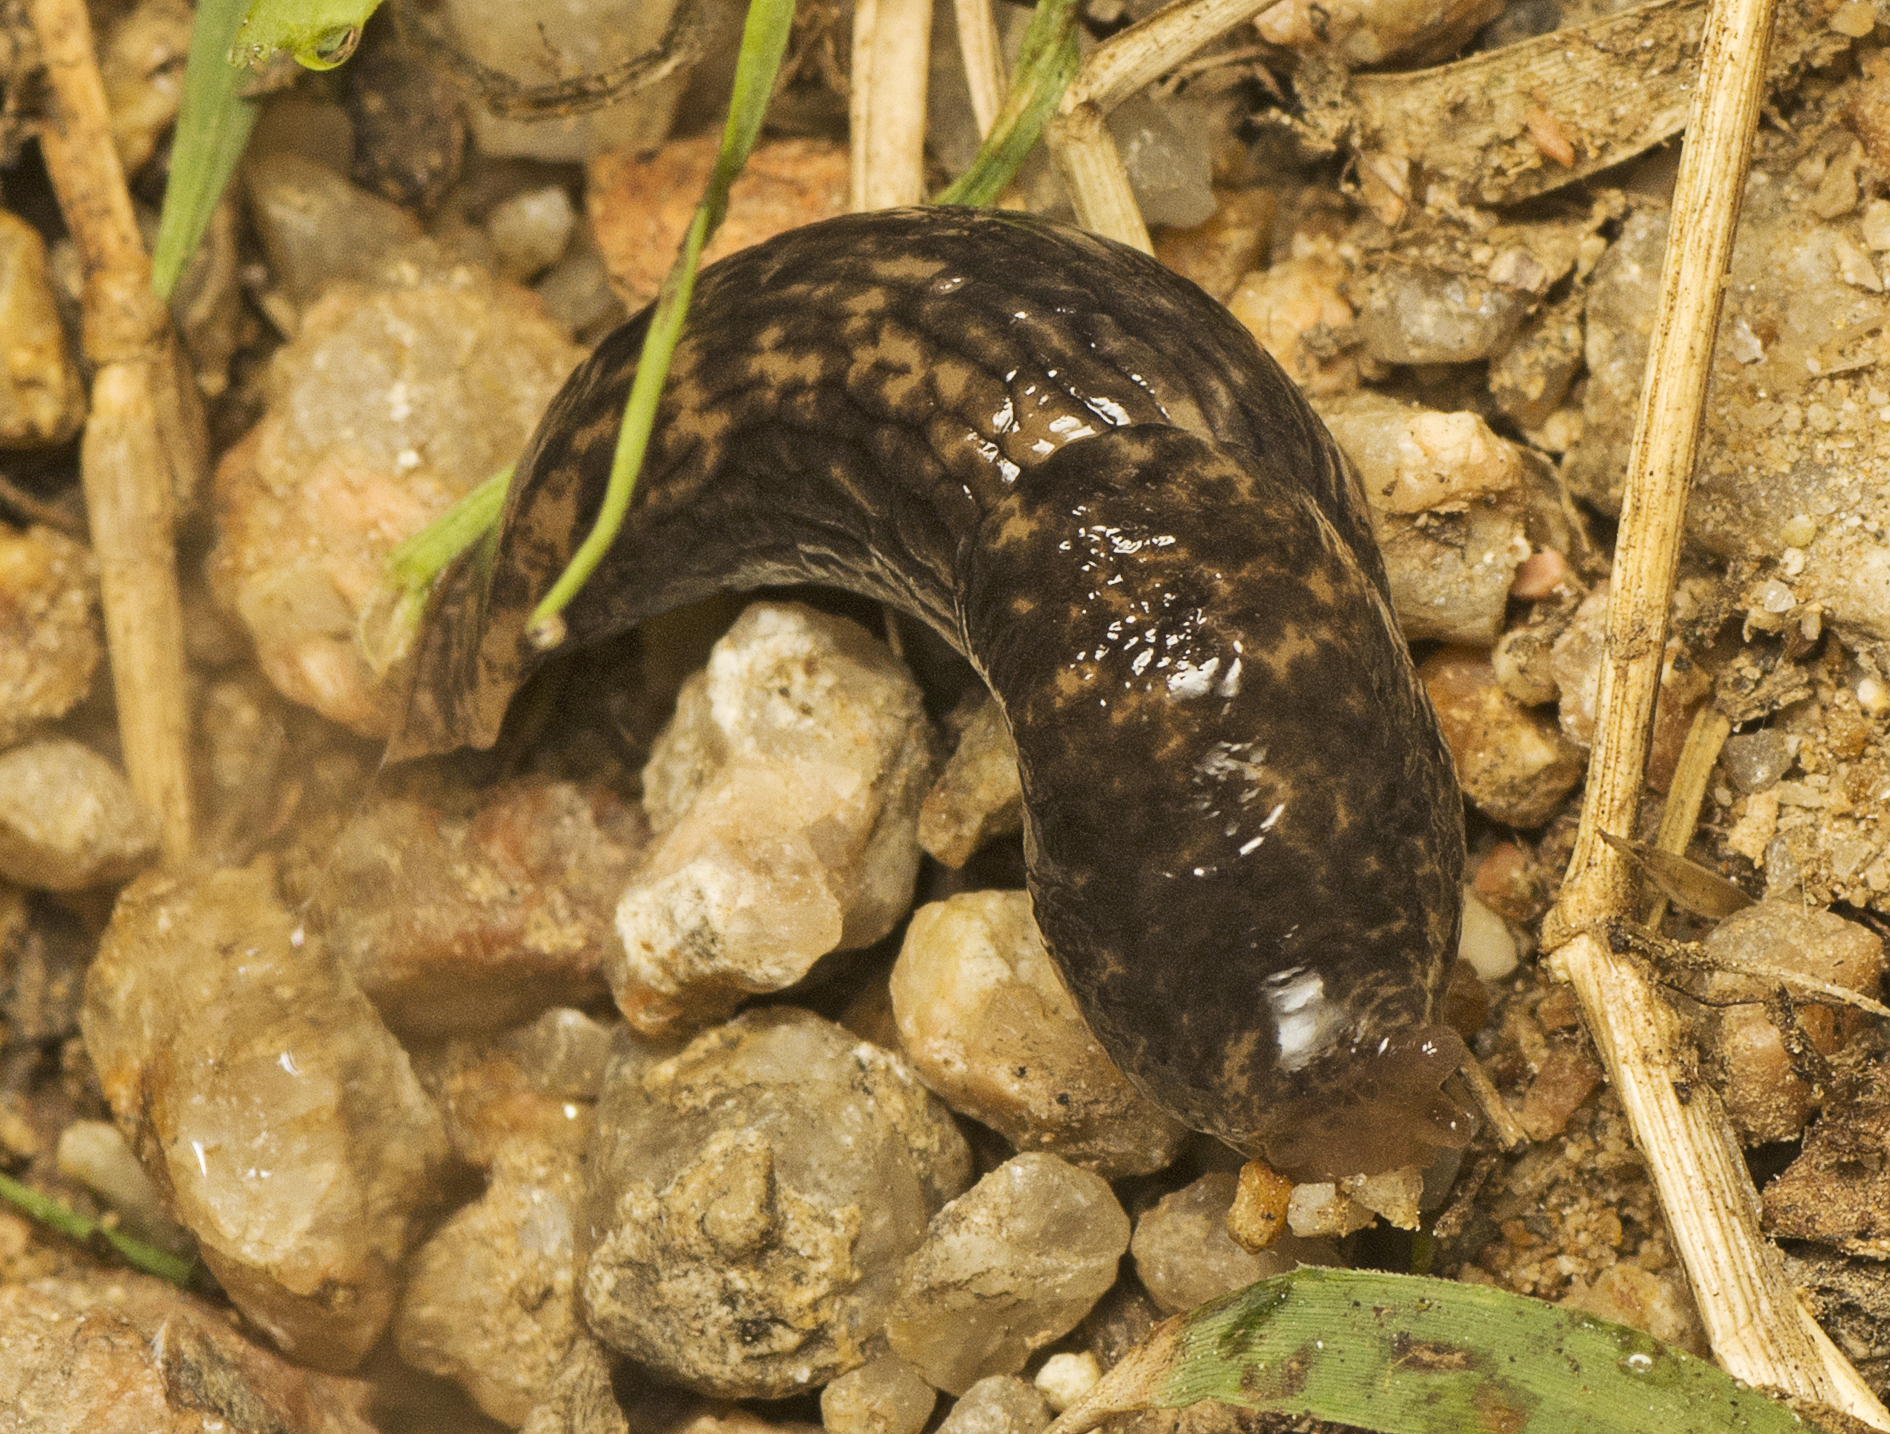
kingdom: Animalia
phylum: Mollusca
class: Gastropoda
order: Stylommatophora
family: Agriolimacidae
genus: Deroceras
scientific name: Deroceras reticulatum
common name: Gray field slug
